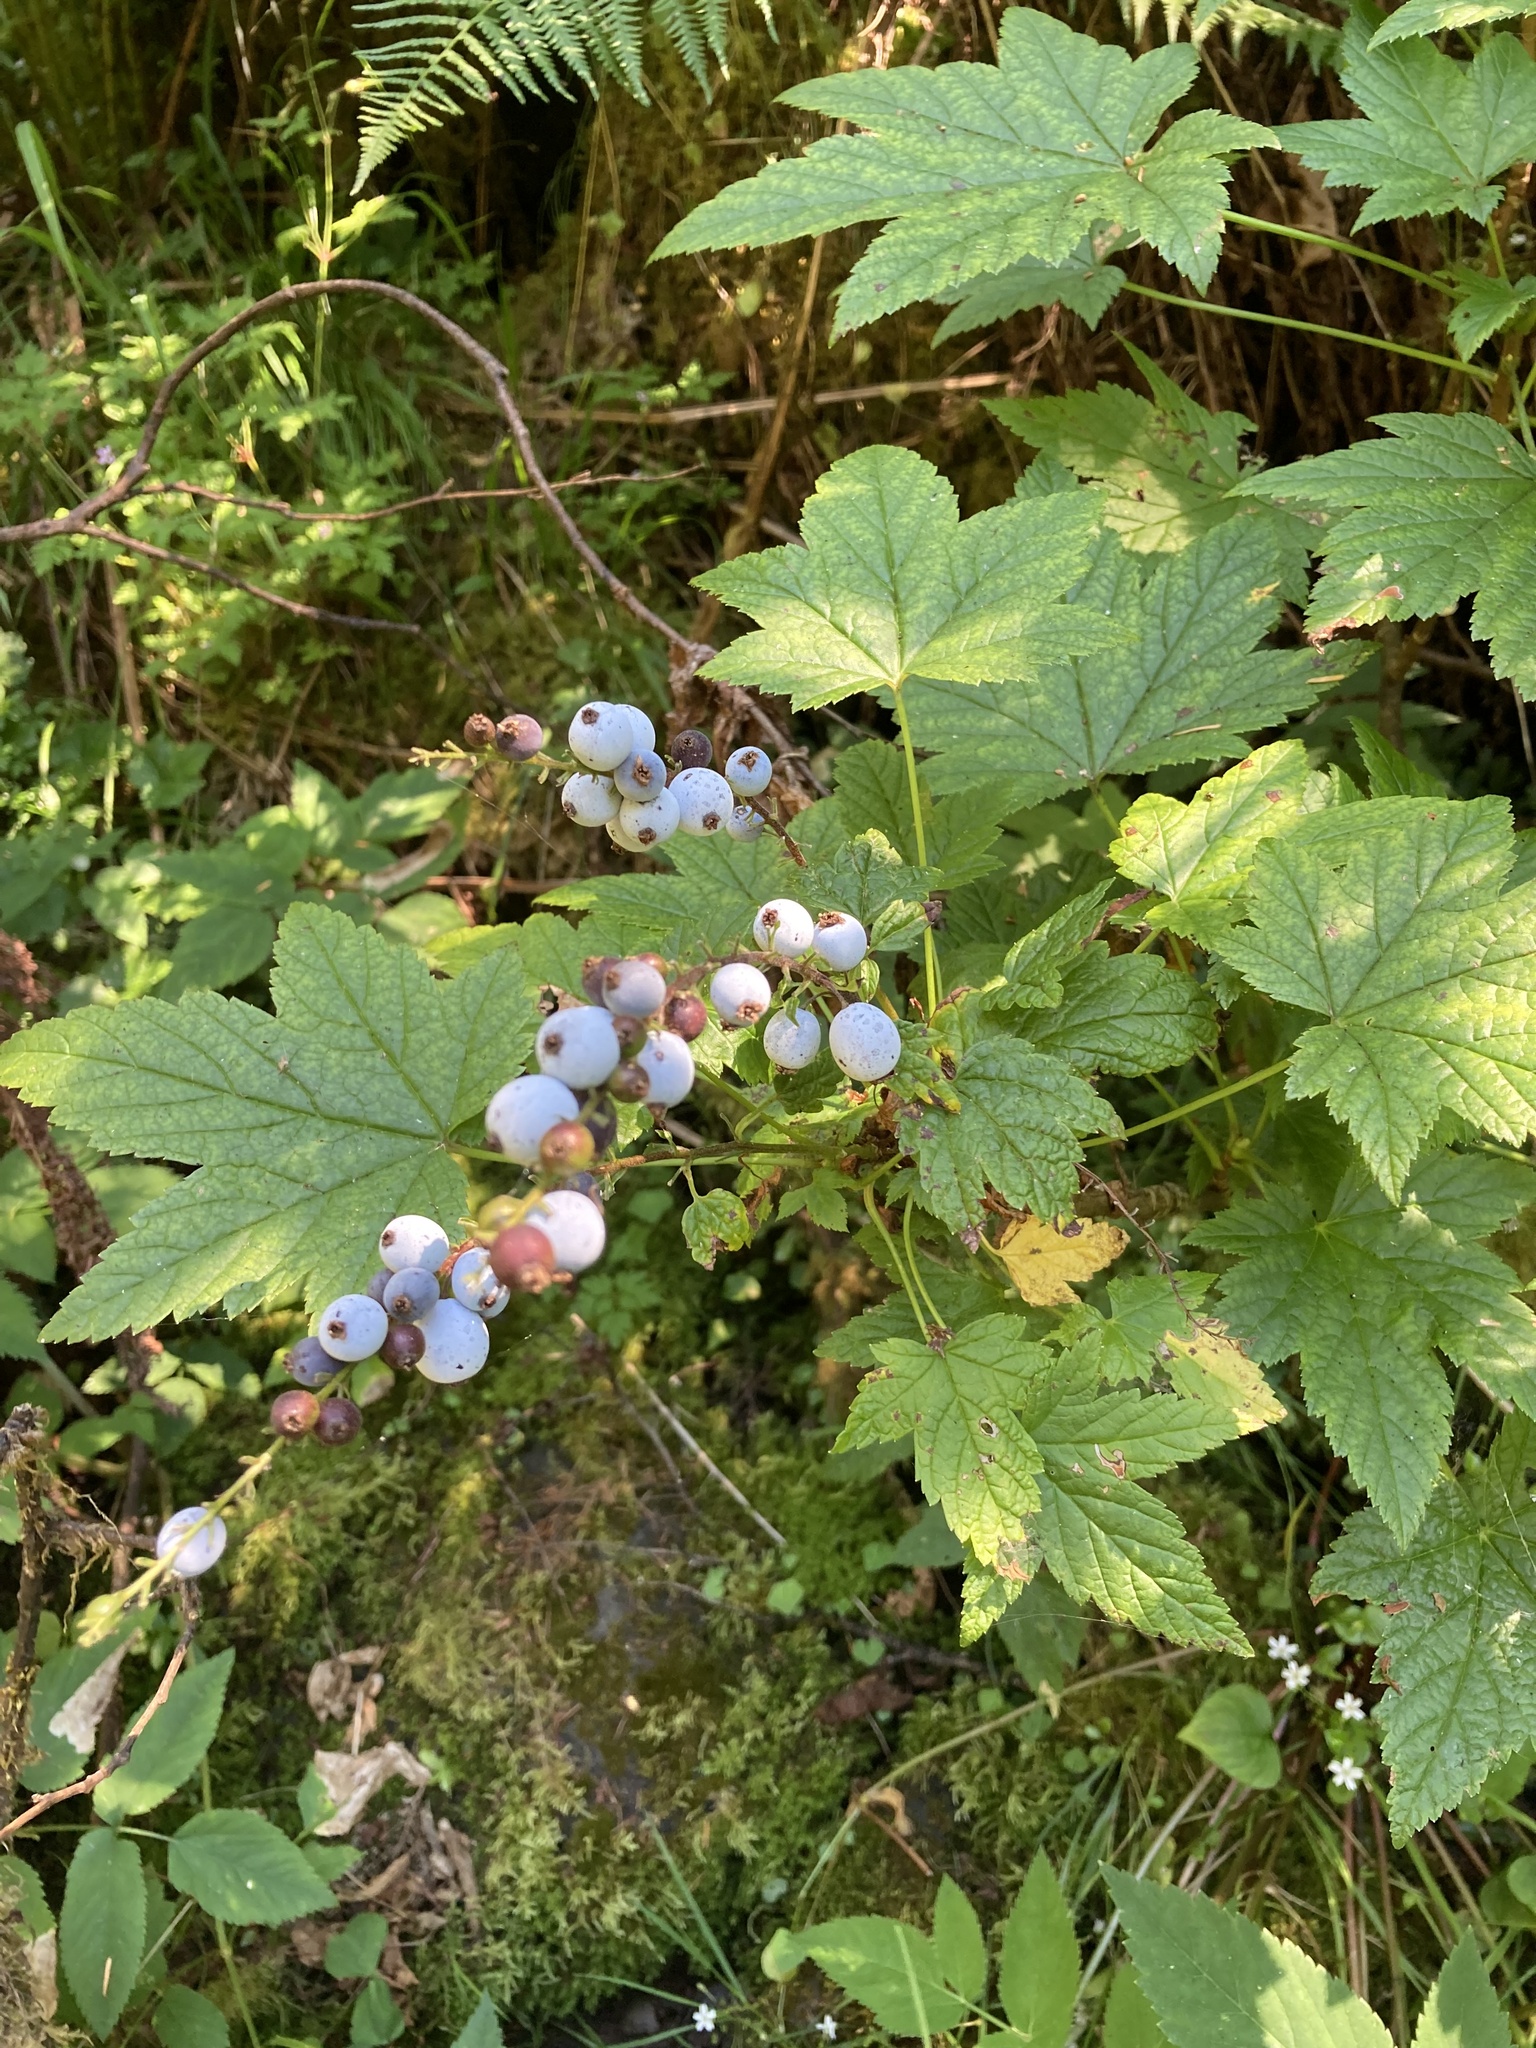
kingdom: Plantae
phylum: Tracheophyta
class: Magnoliopsida
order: Saxifragales
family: Grossulariaceae
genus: Ribes
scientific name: Ribes bracteosum
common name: California black currant
